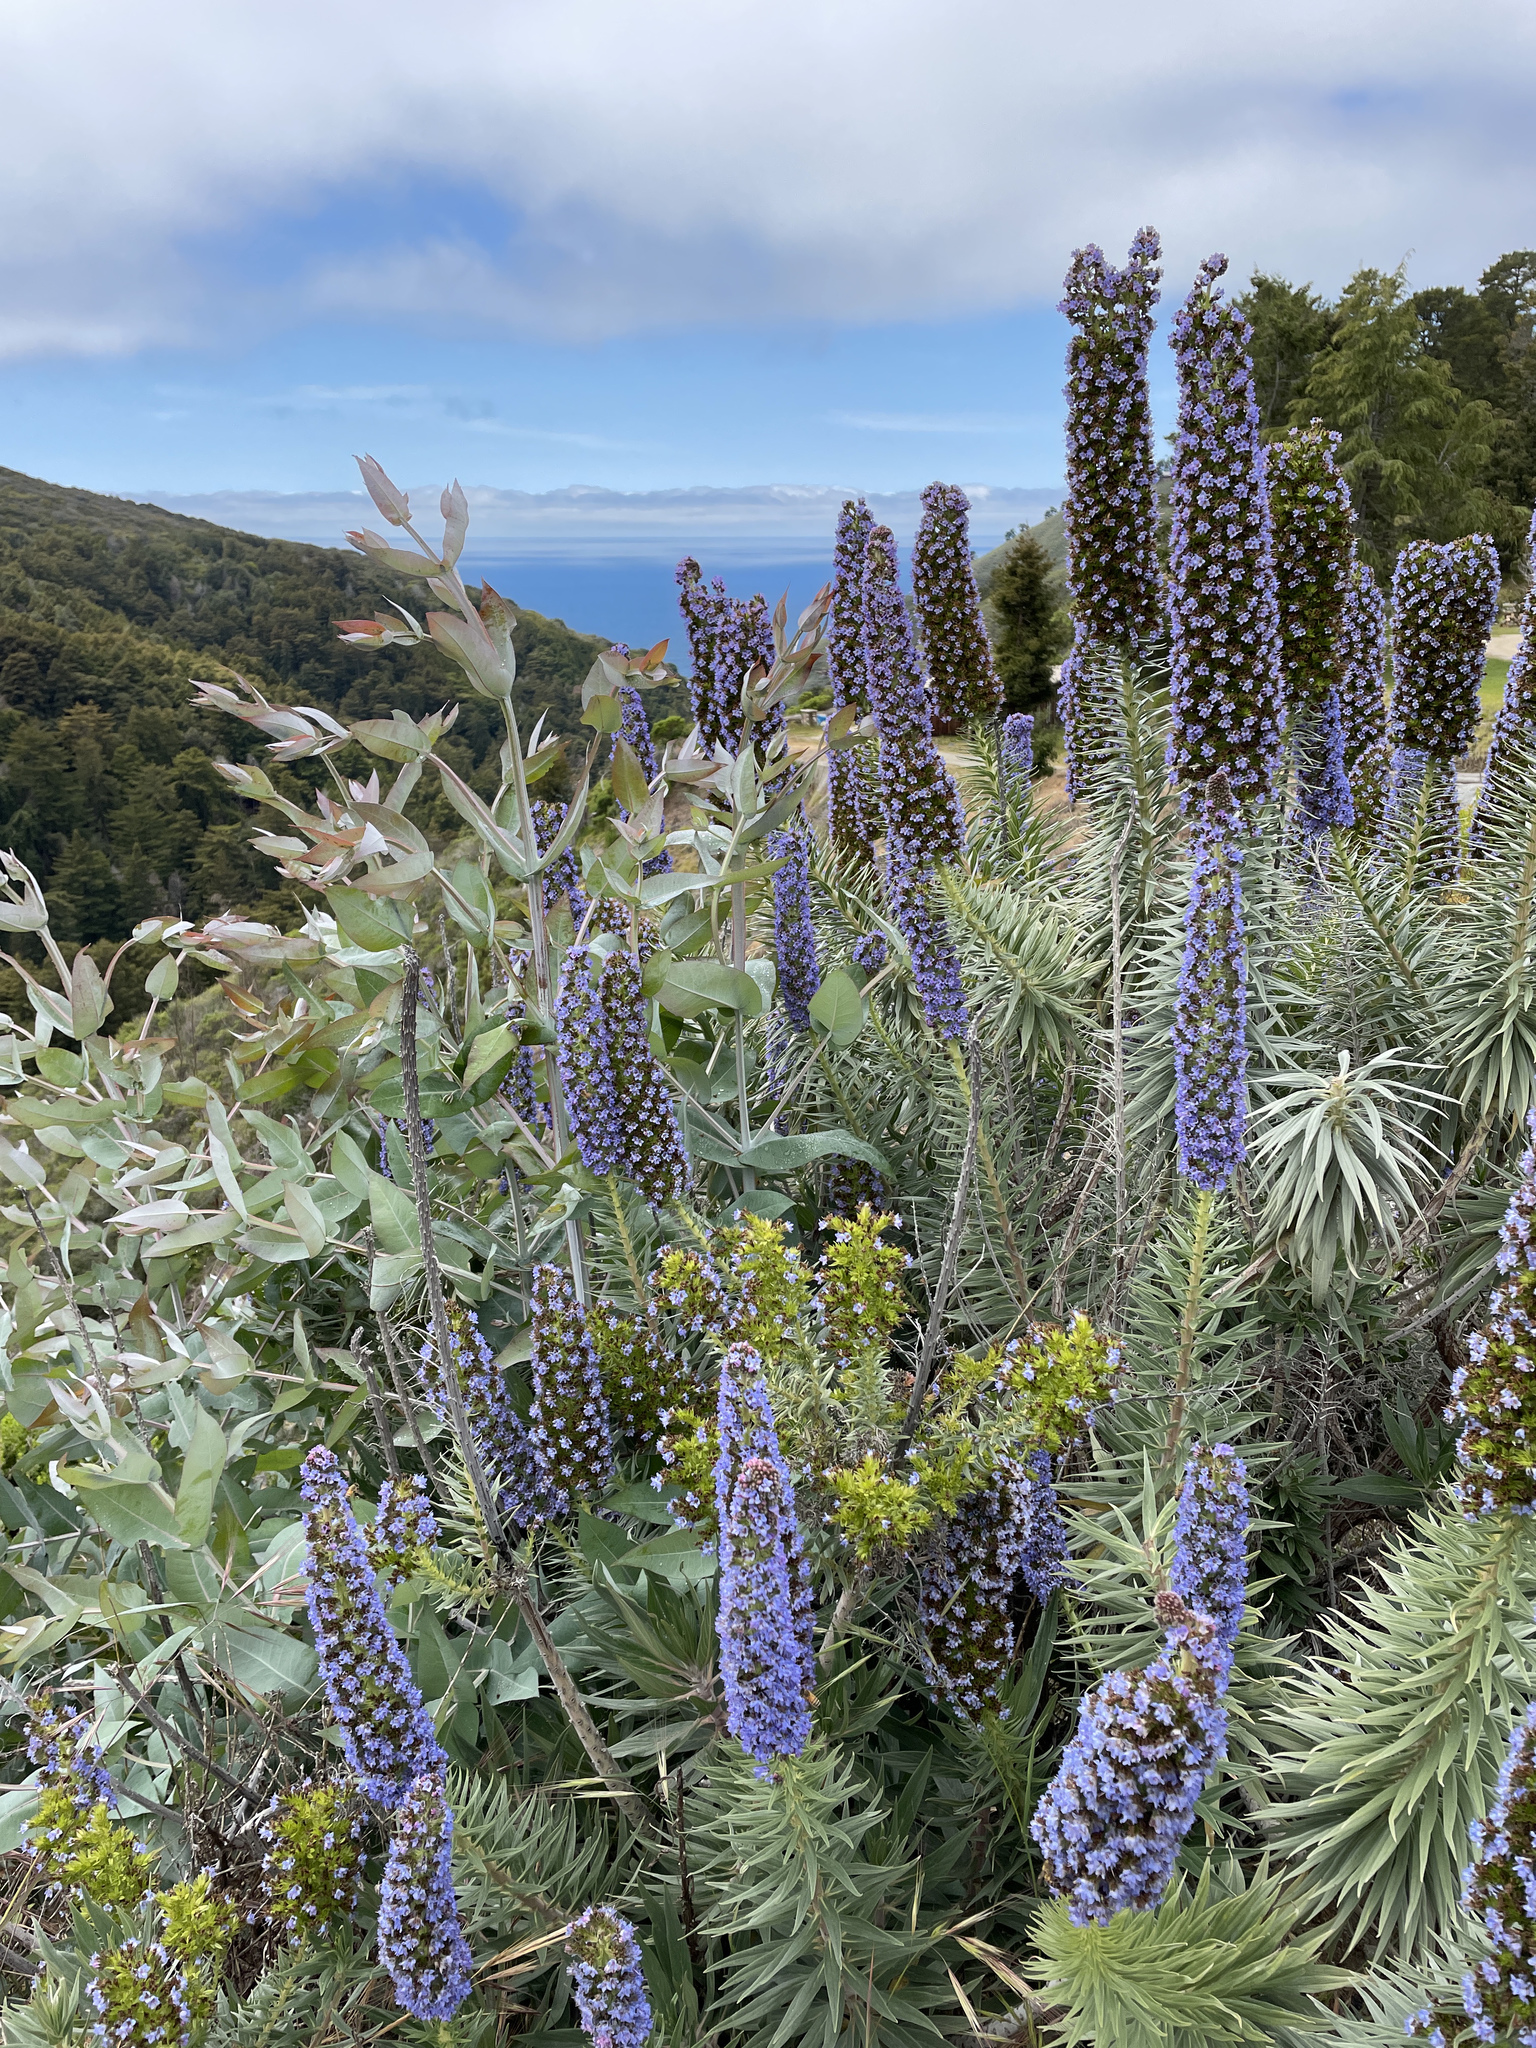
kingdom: Plantae
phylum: Tracheophyta
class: Magnoliopsida
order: Boraginales
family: Boraginaceae
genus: Echium
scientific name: Echium candicans
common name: Pride of madeira
